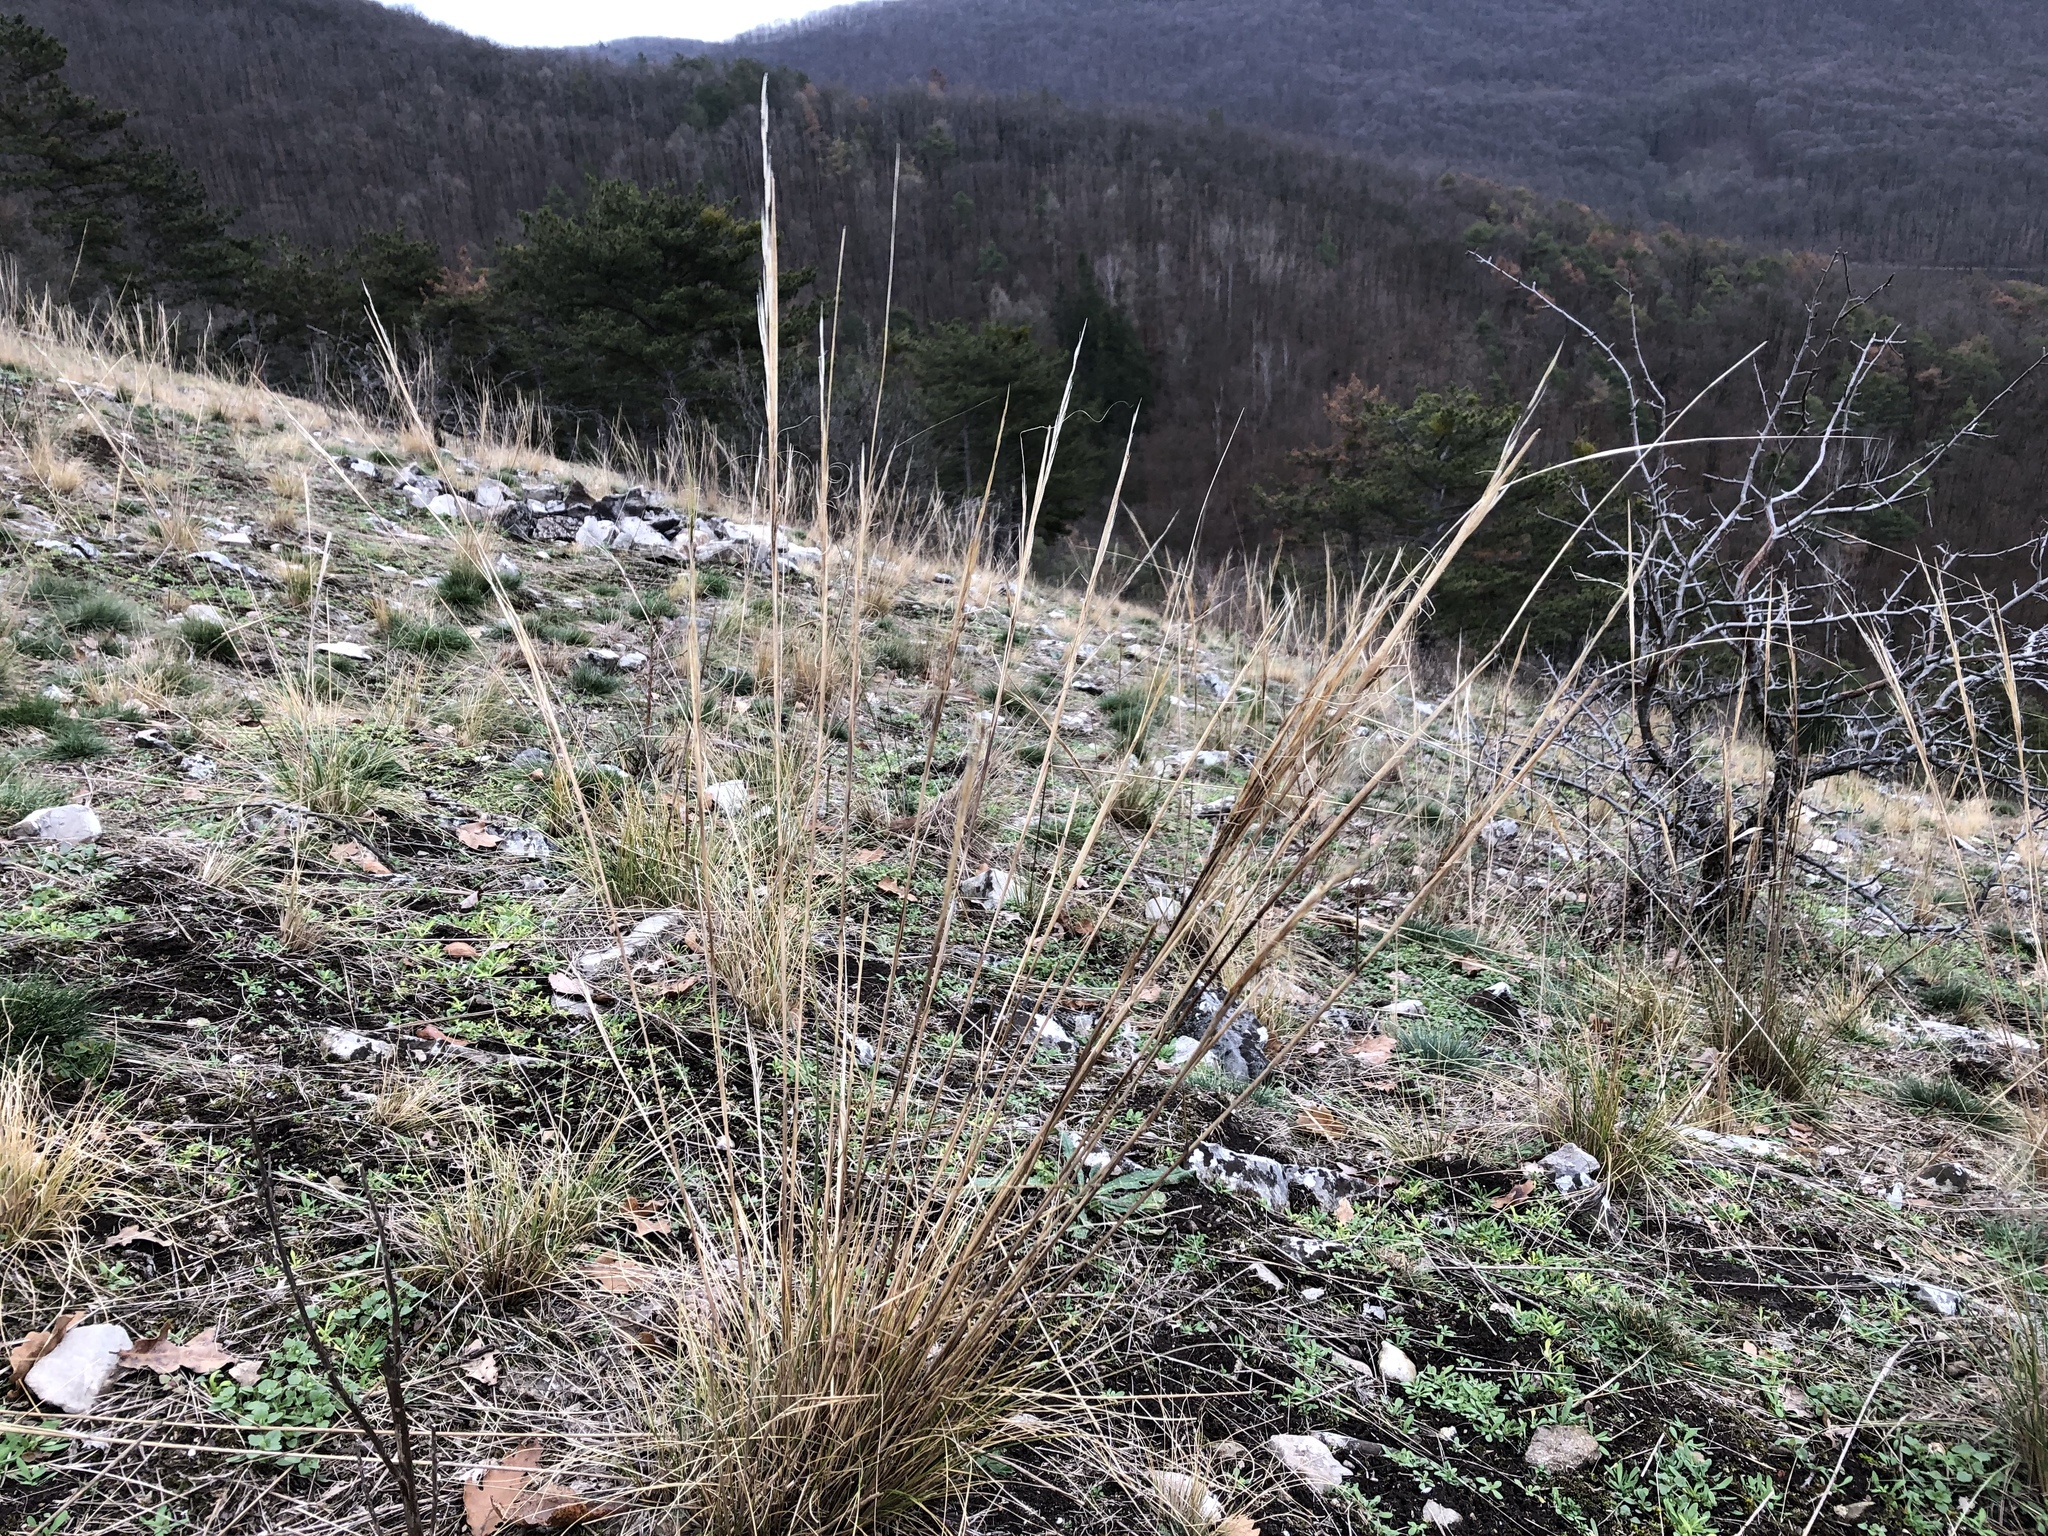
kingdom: Plantae
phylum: Tracheophyta
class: Liliopsida
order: Poales
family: Poaceae
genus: Stipa
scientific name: Stipa capillata
